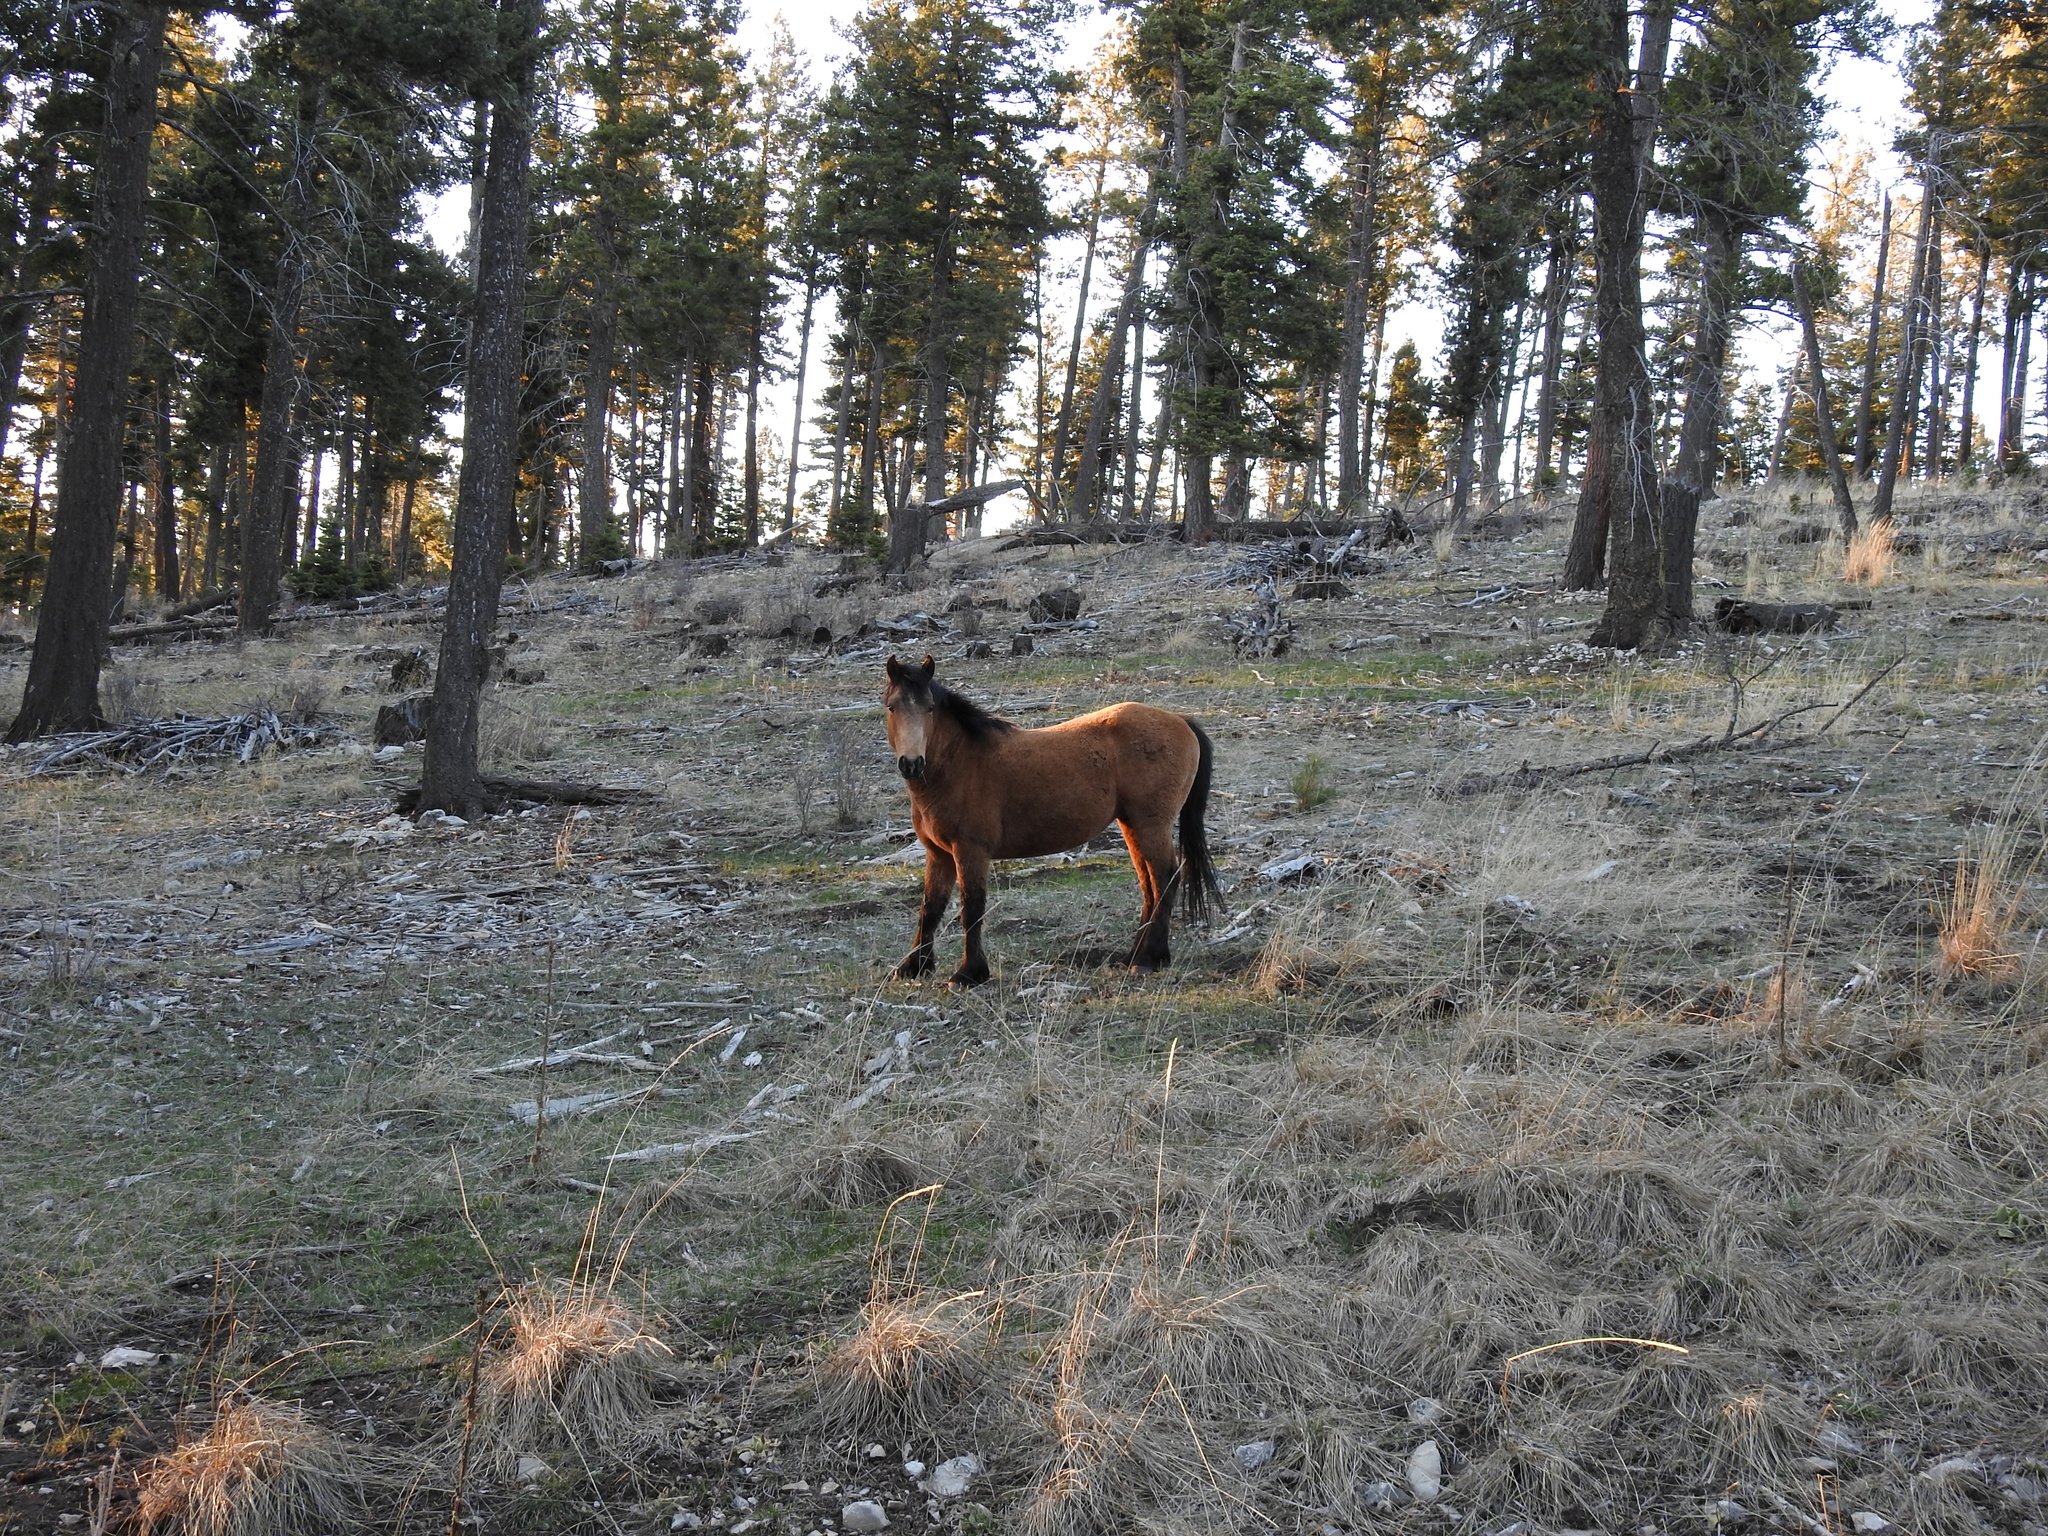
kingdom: Animalia
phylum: Chordata
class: Mammalia
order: Perissodactyla
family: Equidae
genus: Equus
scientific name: Equus caballus
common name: Horse
